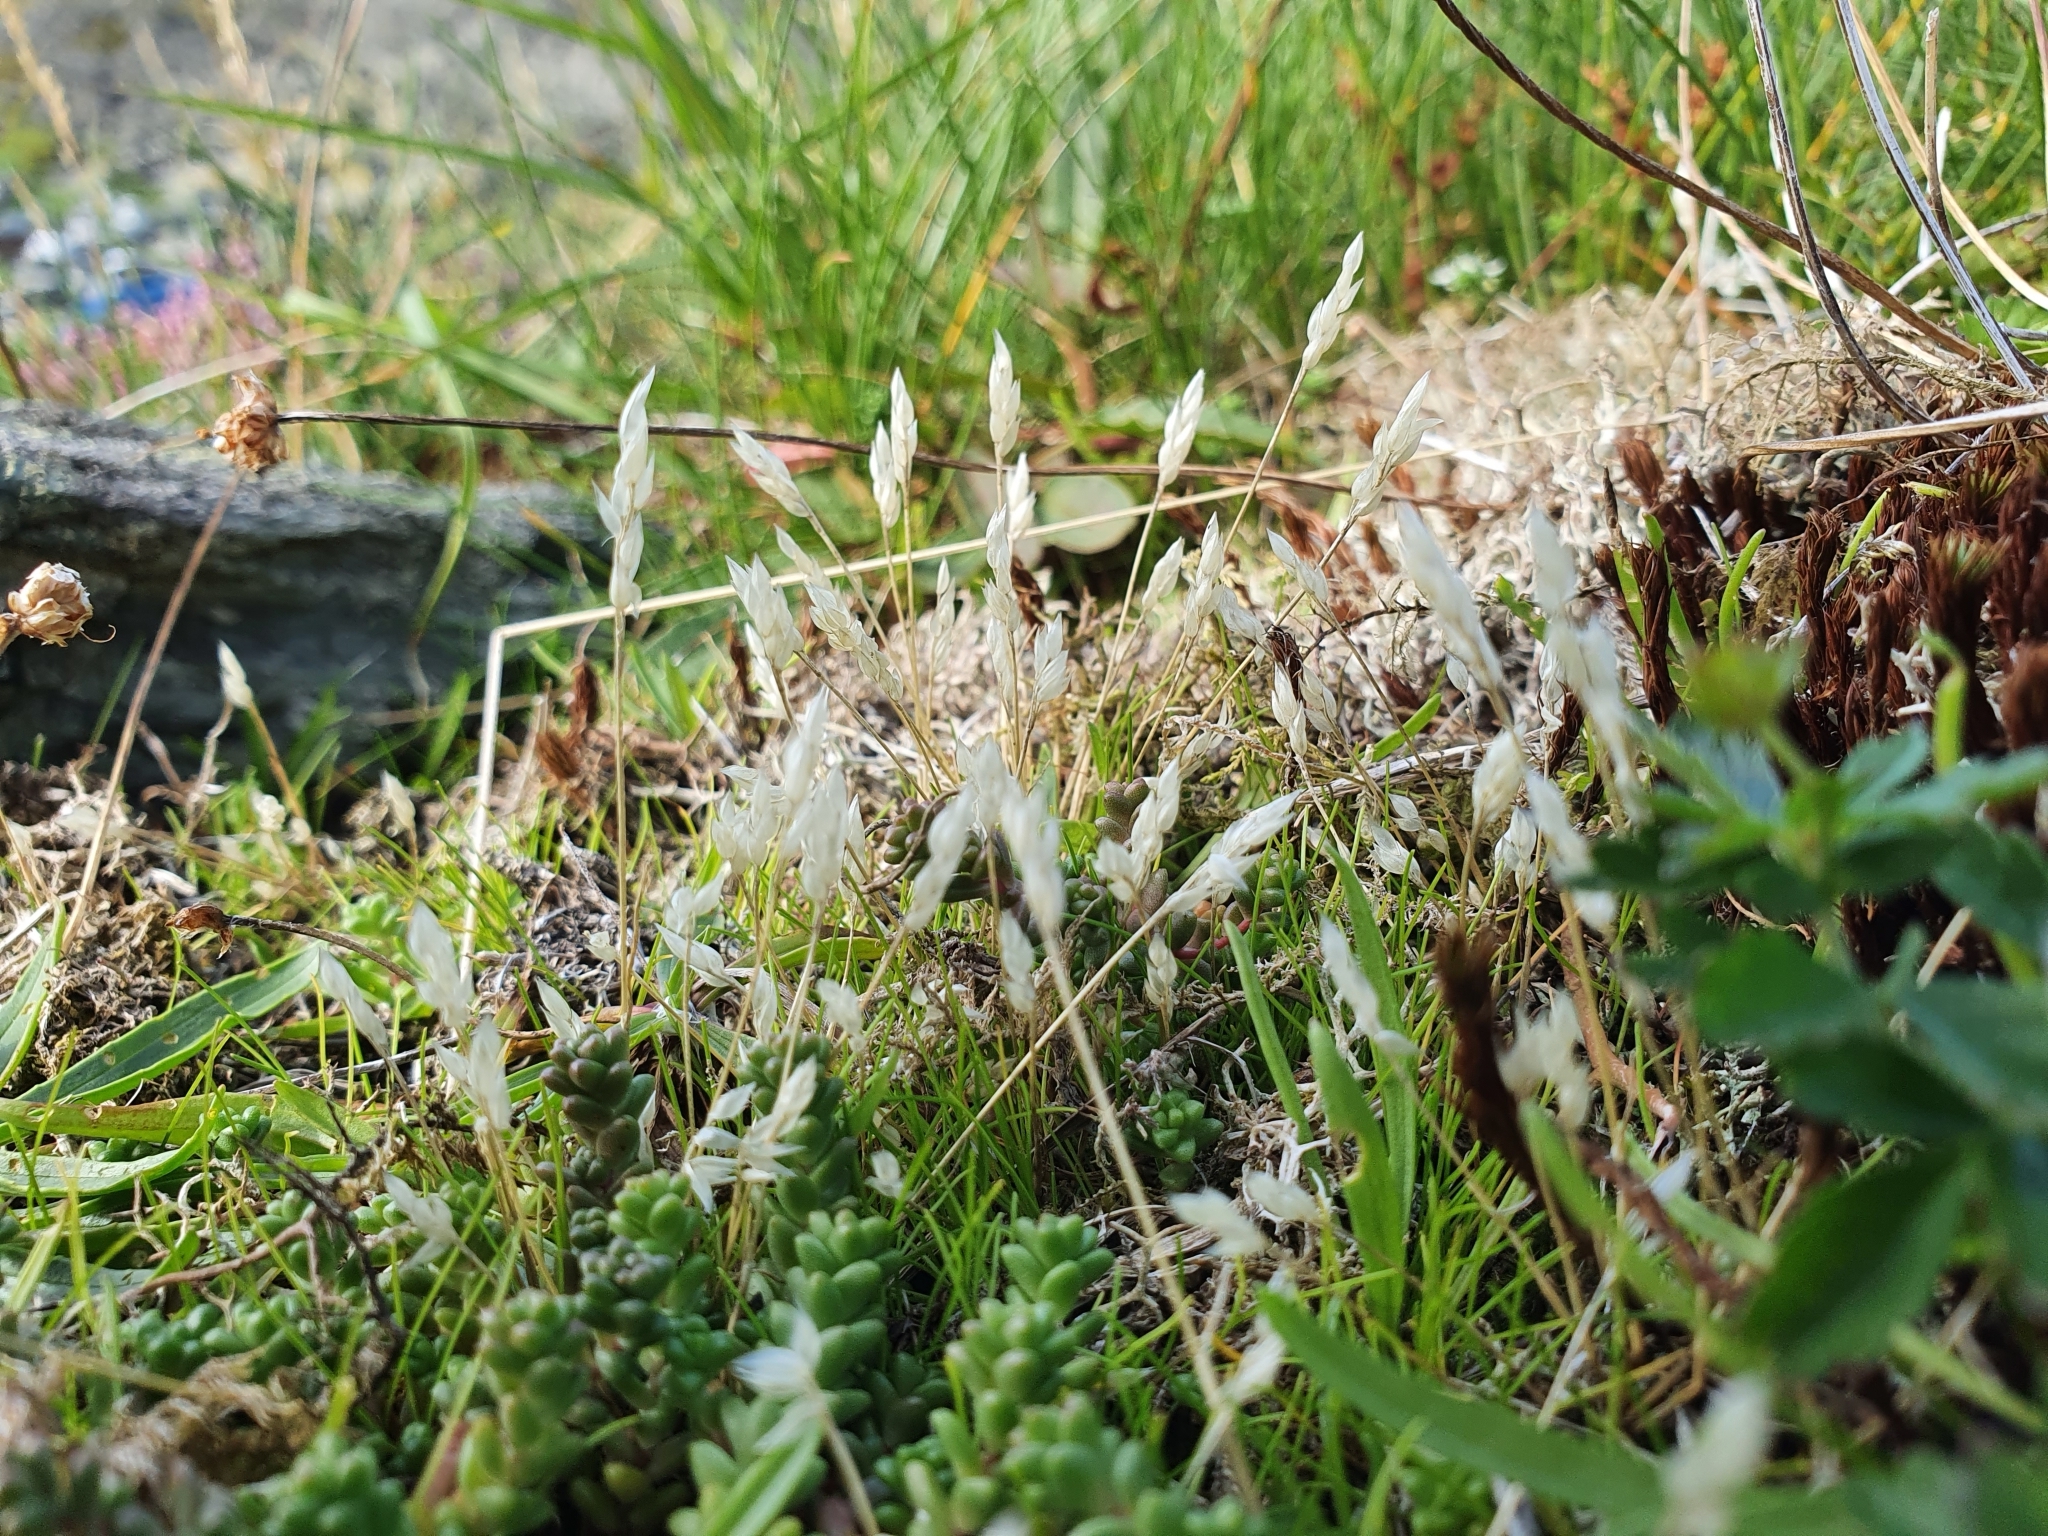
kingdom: Plantae
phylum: Tracheophyta
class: Liliopsida
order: Poales
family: Poaceae
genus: Aira
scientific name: Aira praecox
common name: Early hair-grass
